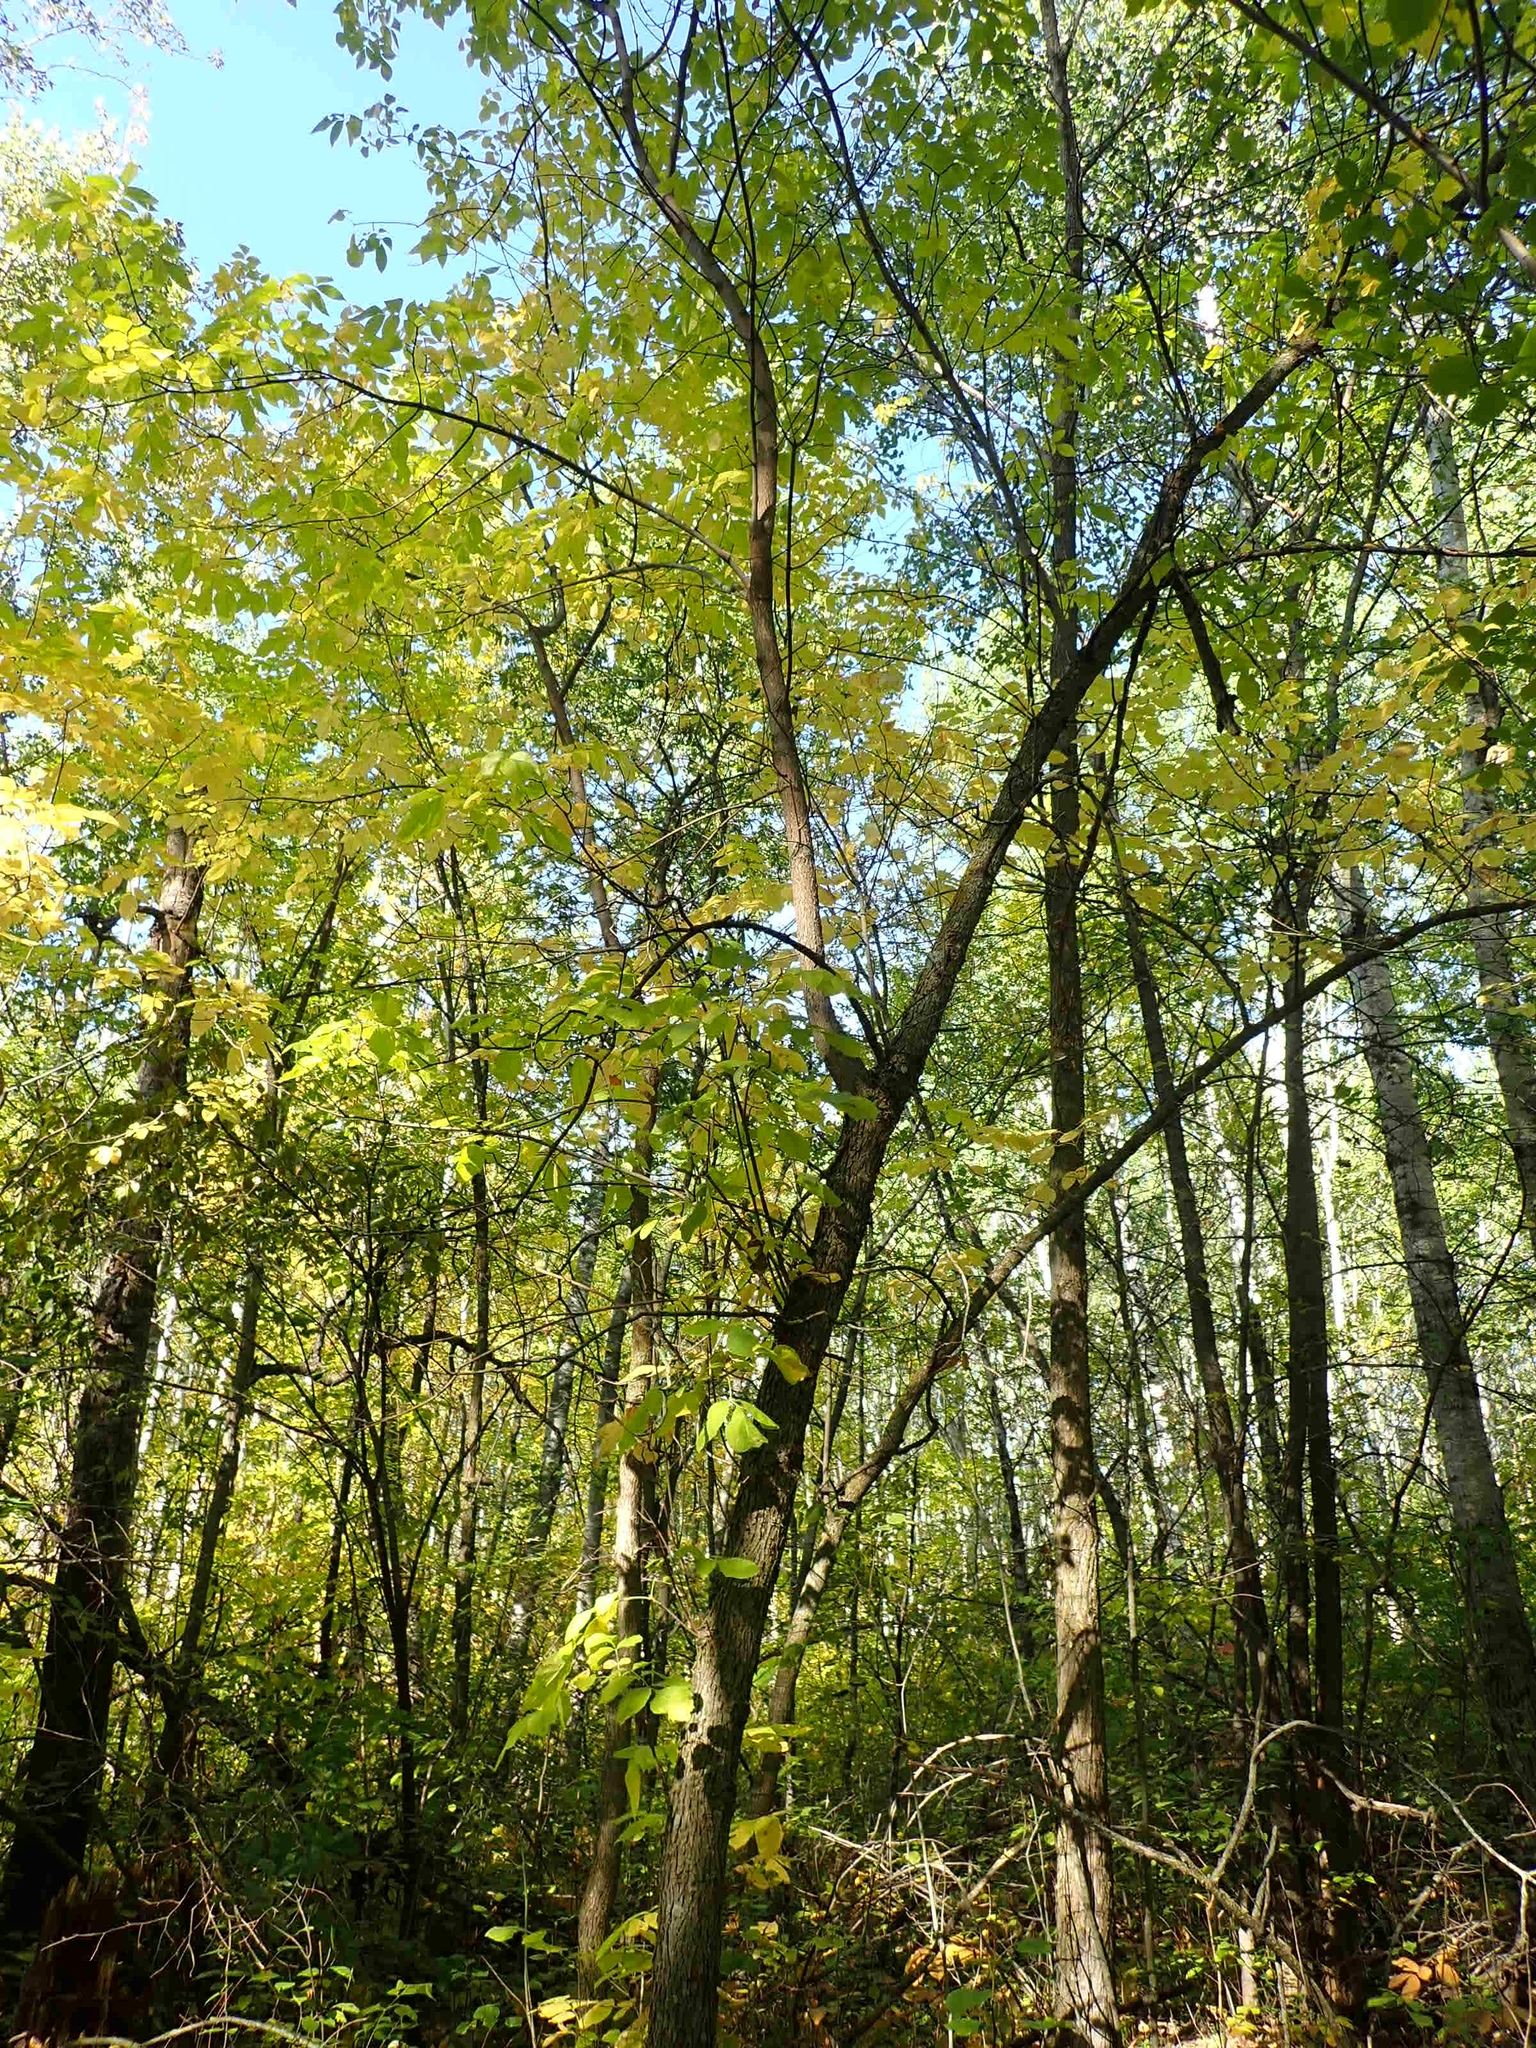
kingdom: Plantae
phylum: Tracheophyta
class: Magnoliopsida
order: Lamiales
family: Oleaceae
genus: Fraxinus
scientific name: Fraxinus pennsylvanica
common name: Green ash
